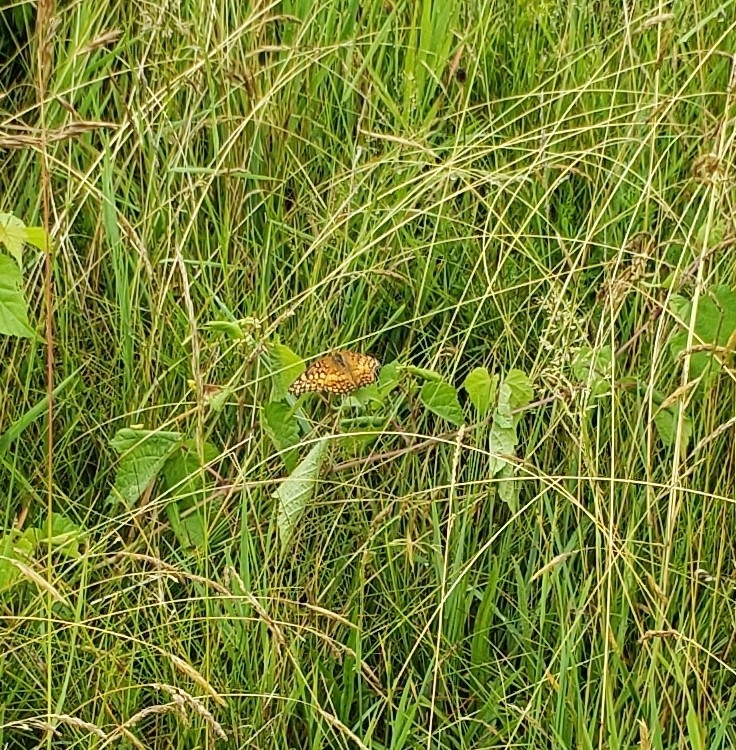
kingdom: Animalia
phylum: Arthropoda
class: Insecta
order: Lepidoptera
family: Nymphalidae
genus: Euptoieta
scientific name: Euptoieta claudia
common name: Variegated fritillary
